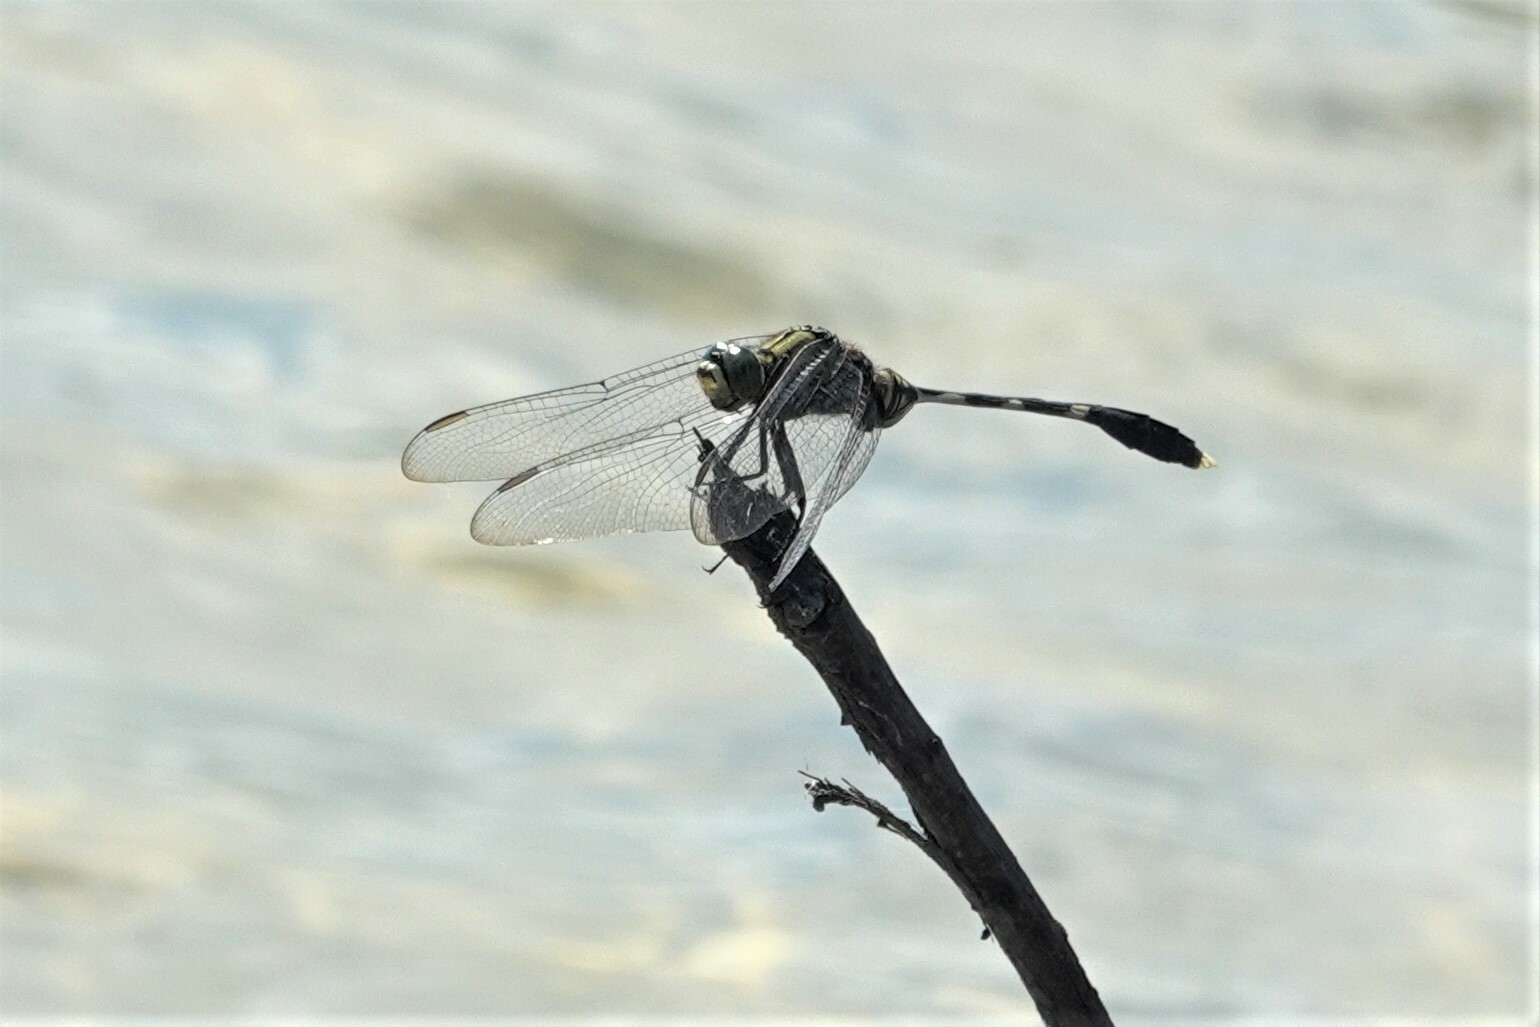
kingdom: Animalia
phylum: Arthropoda
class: Insecta
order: Odonata
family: Libellulidae
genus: Orthetrum
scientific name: Orthetrum sabina
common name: Slender skimmer
